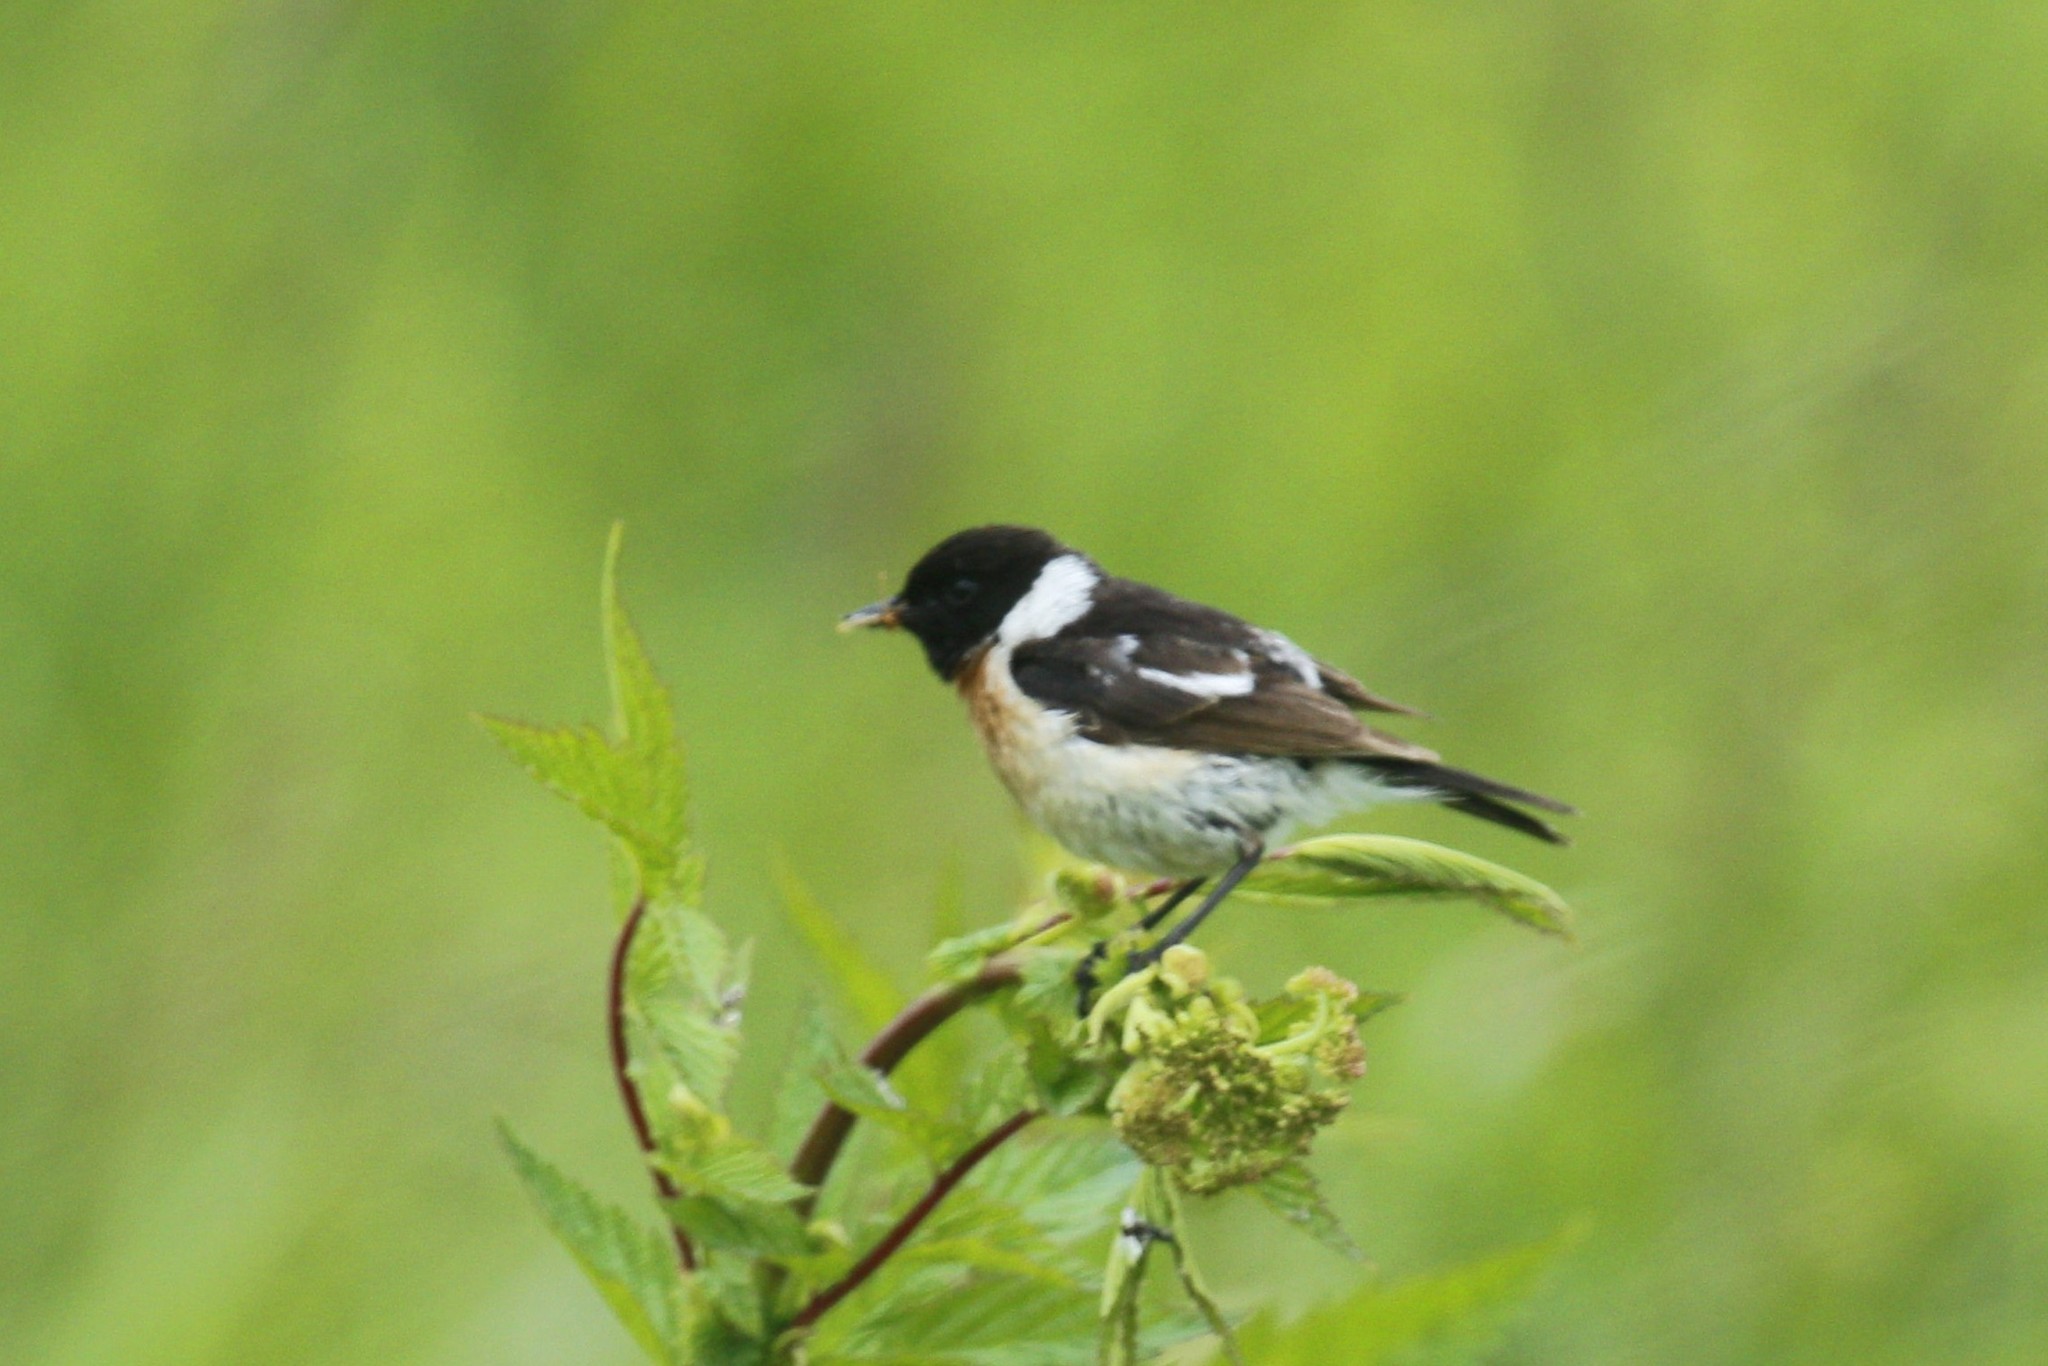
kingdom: Animalia
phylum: Chordata
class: Aves
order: Passeriformes
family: Muscicapidae
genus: Saxicola
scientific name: Saxicola maurus
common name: Siberian stonechat
